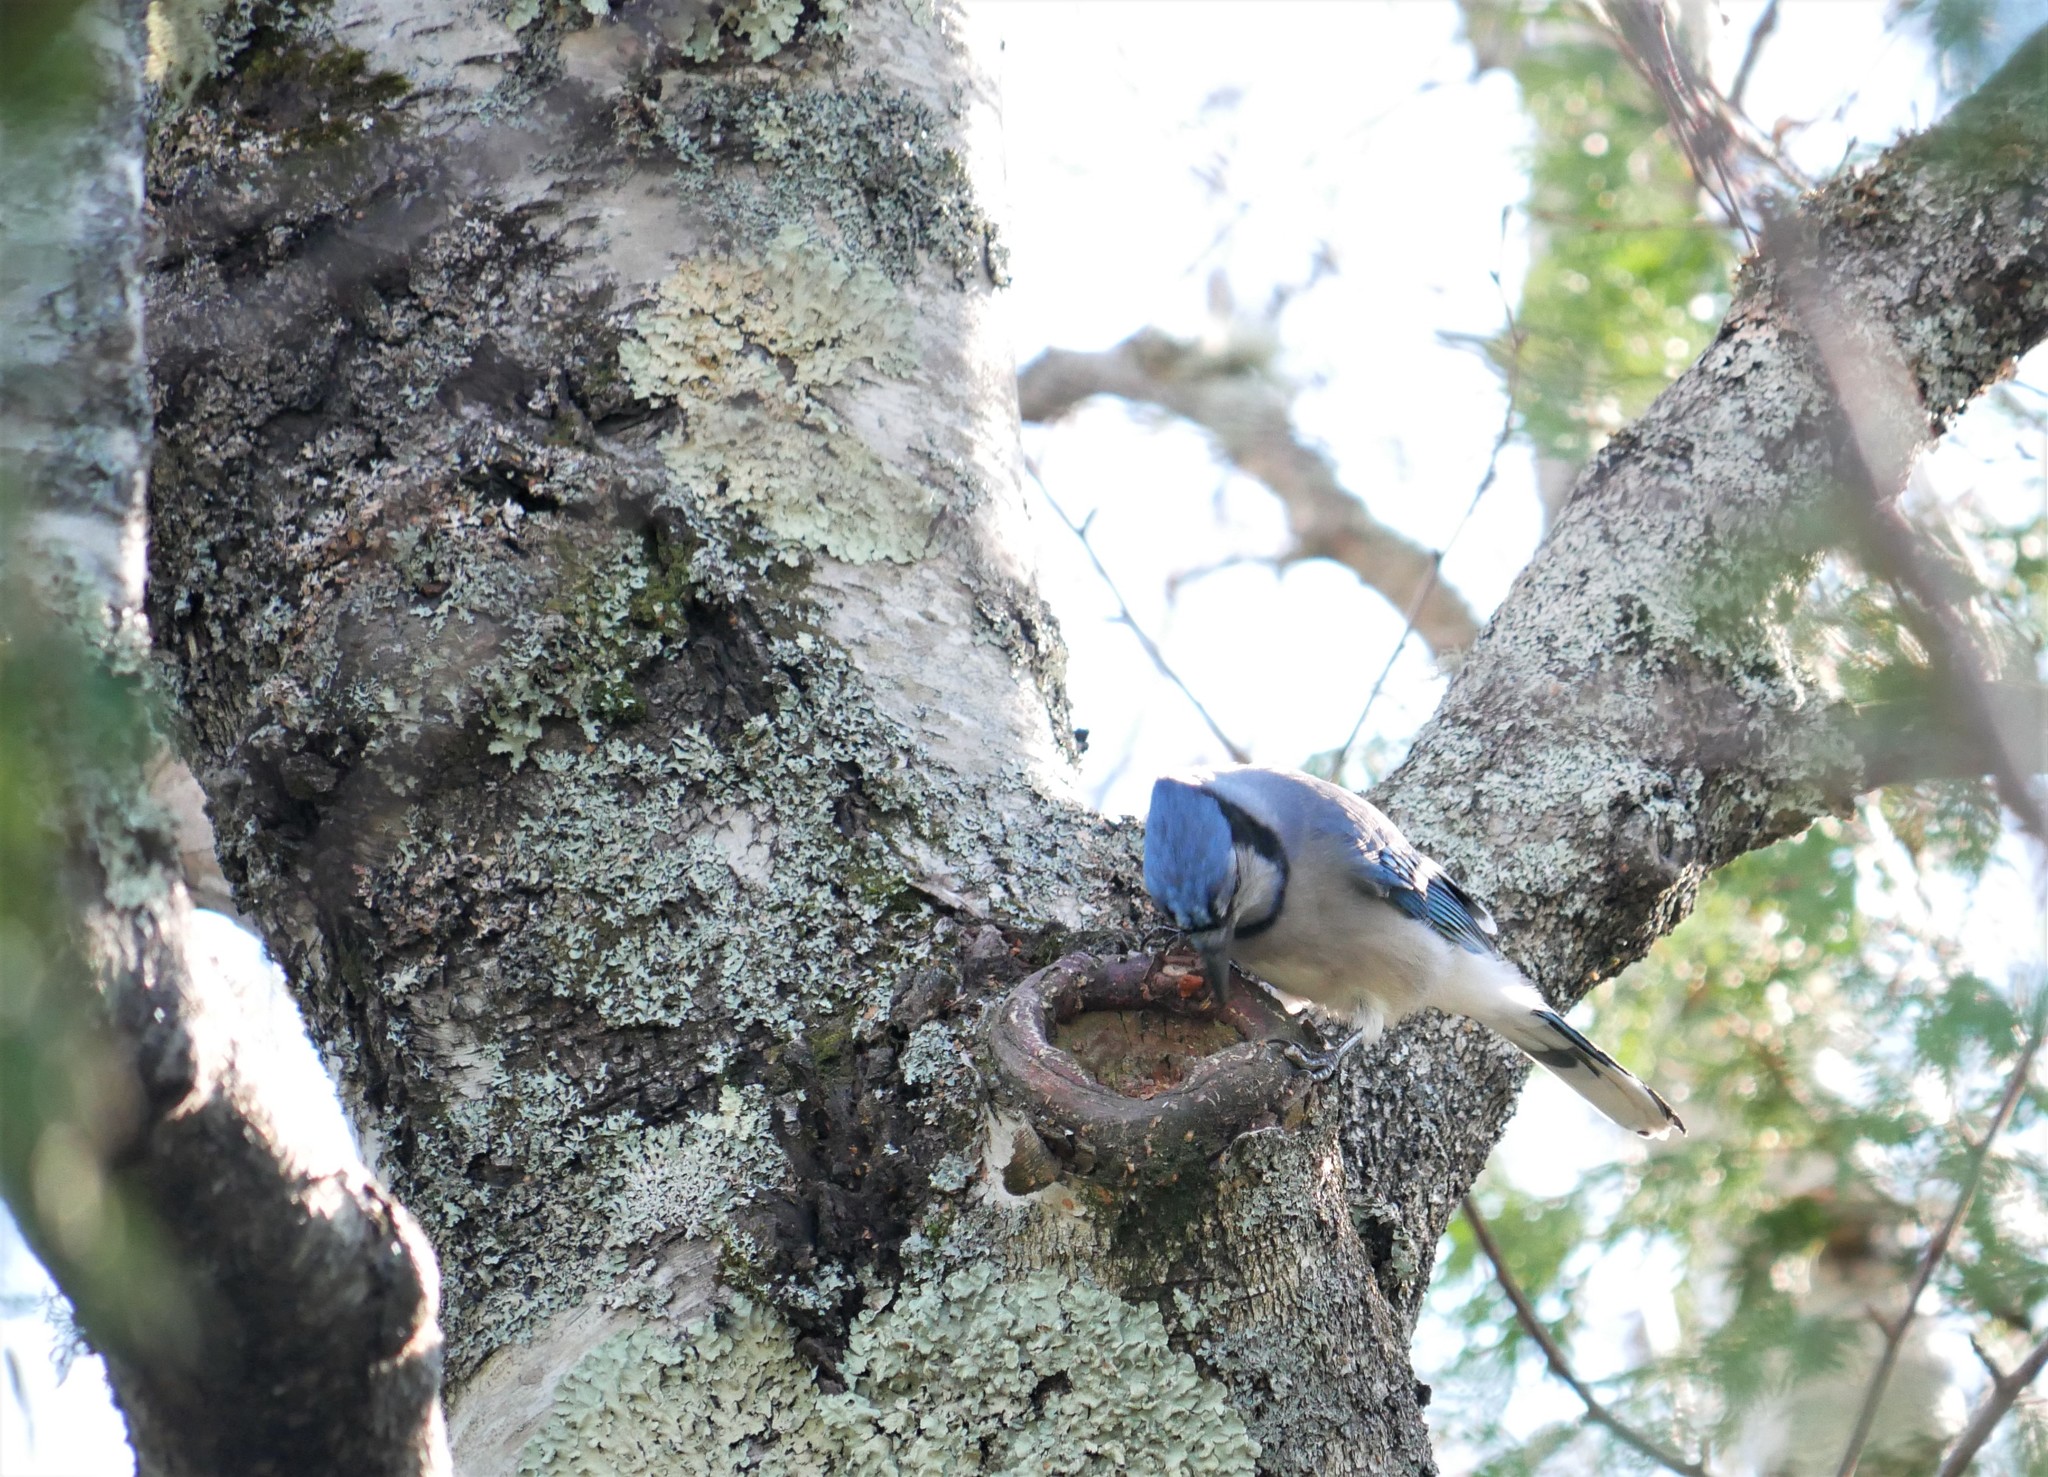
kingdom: Animalia
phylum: Chordata
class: Aves
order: Passeriformes
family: Corvidae
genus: Cyanocitta
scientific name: Cyanocitta cristata
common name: Blue jay
